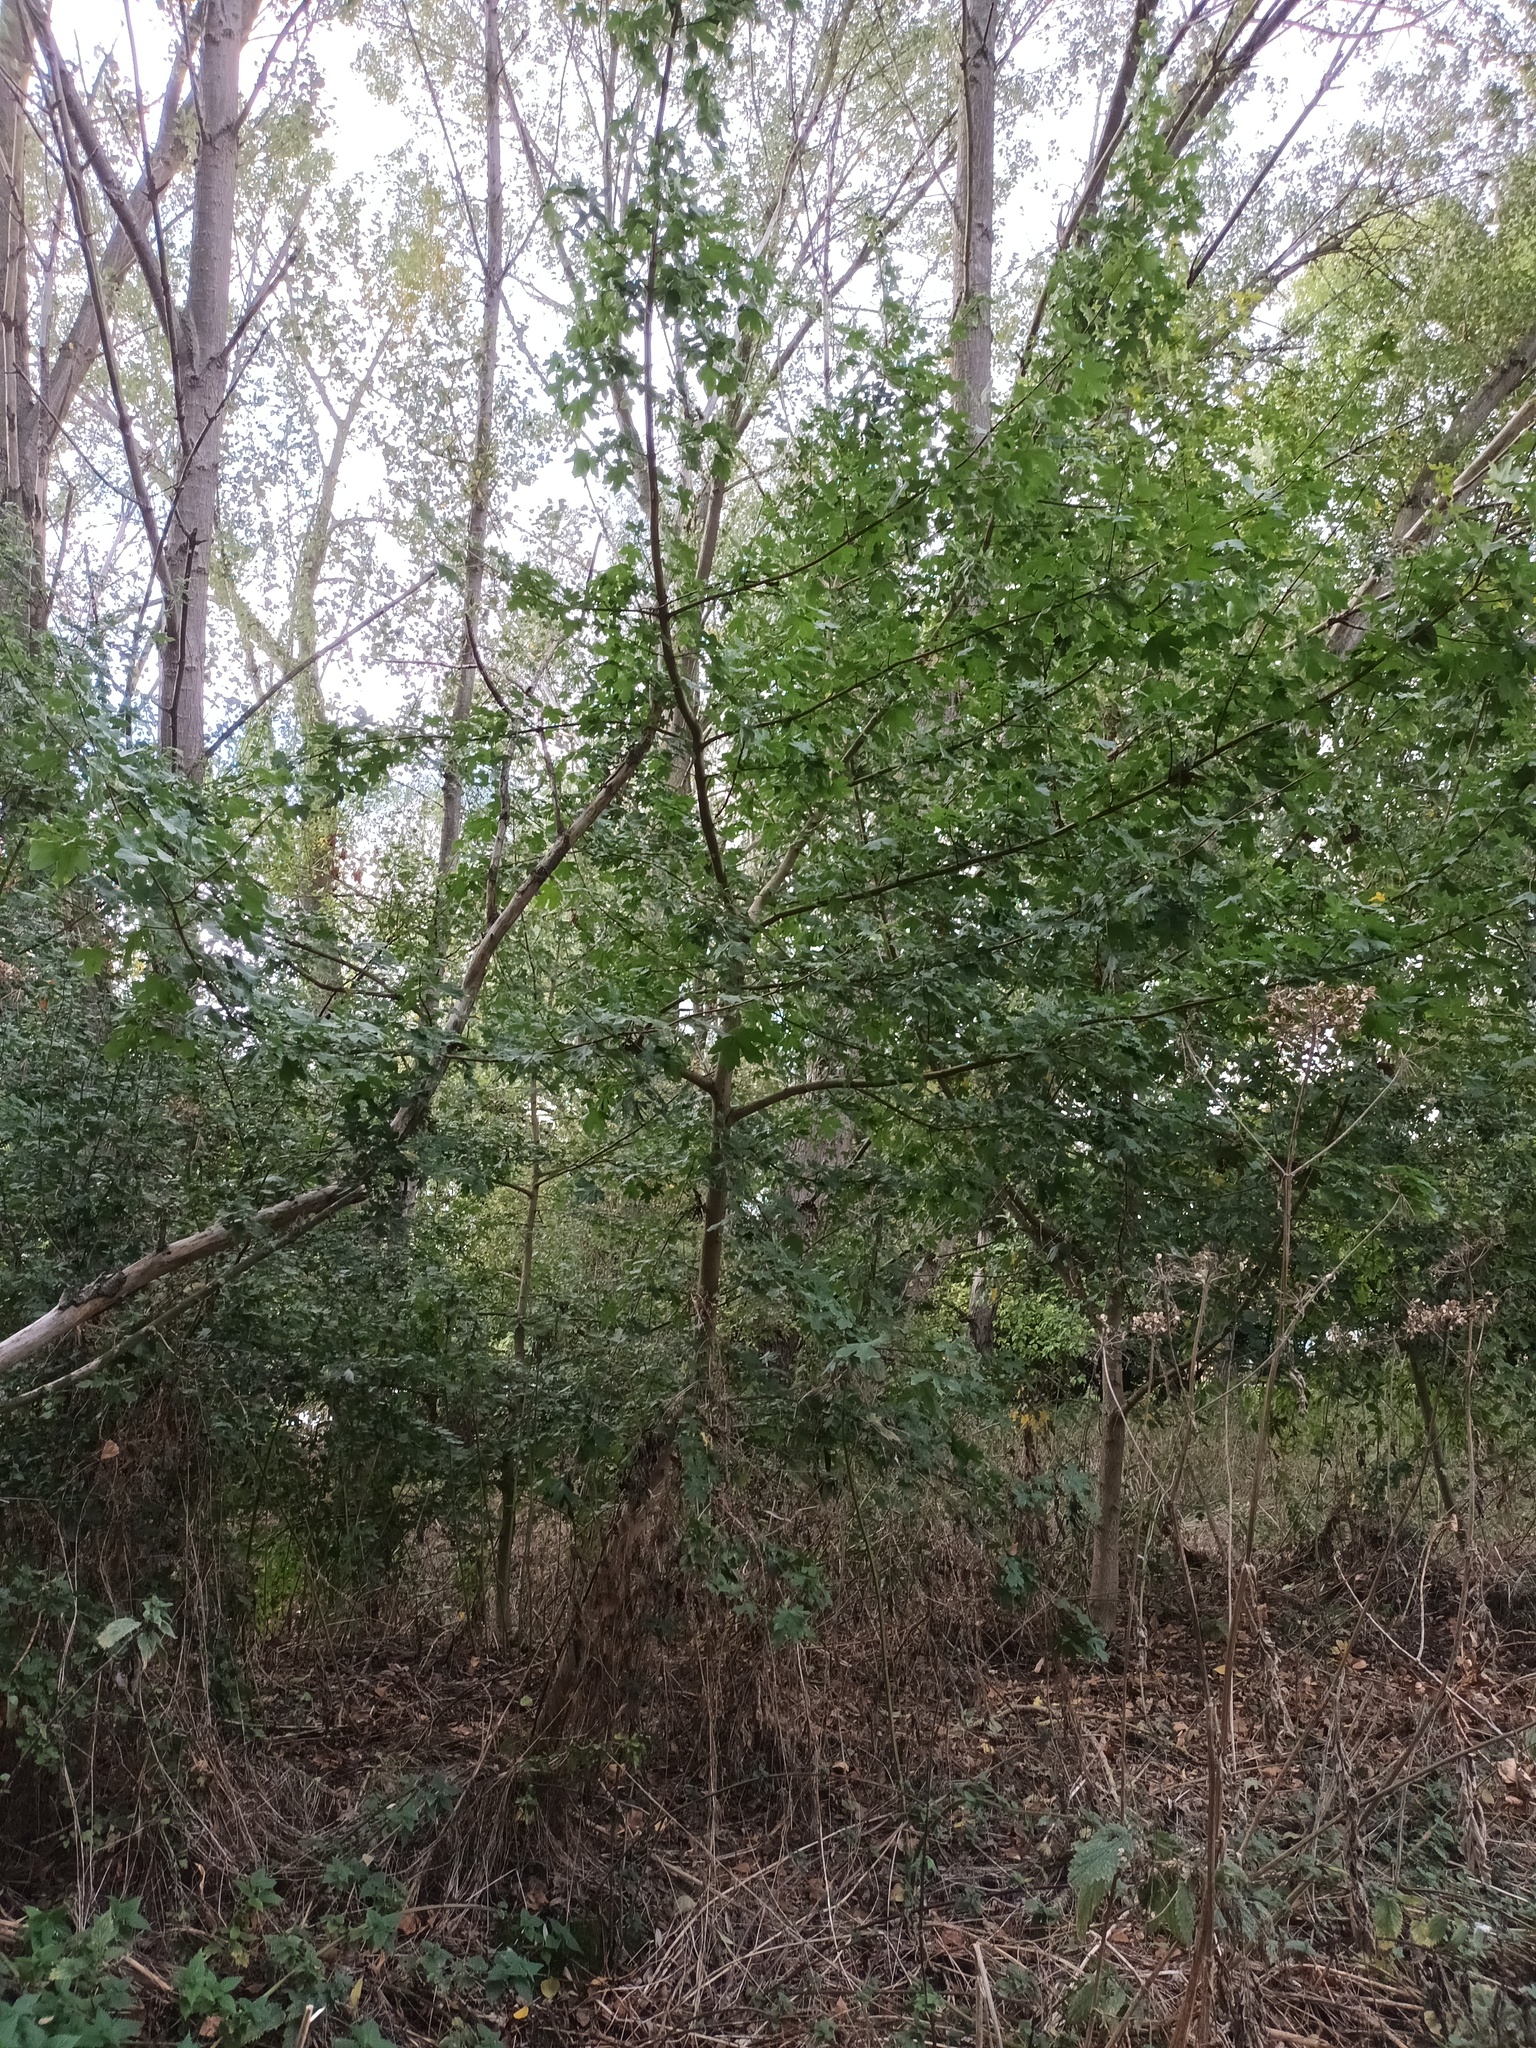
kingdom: Plantae
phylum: Tracheophyta
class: Magnoliopsida
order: Sapindales
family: Sapindaceae
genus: Acer
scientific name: Acer campestre
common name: Field maple
